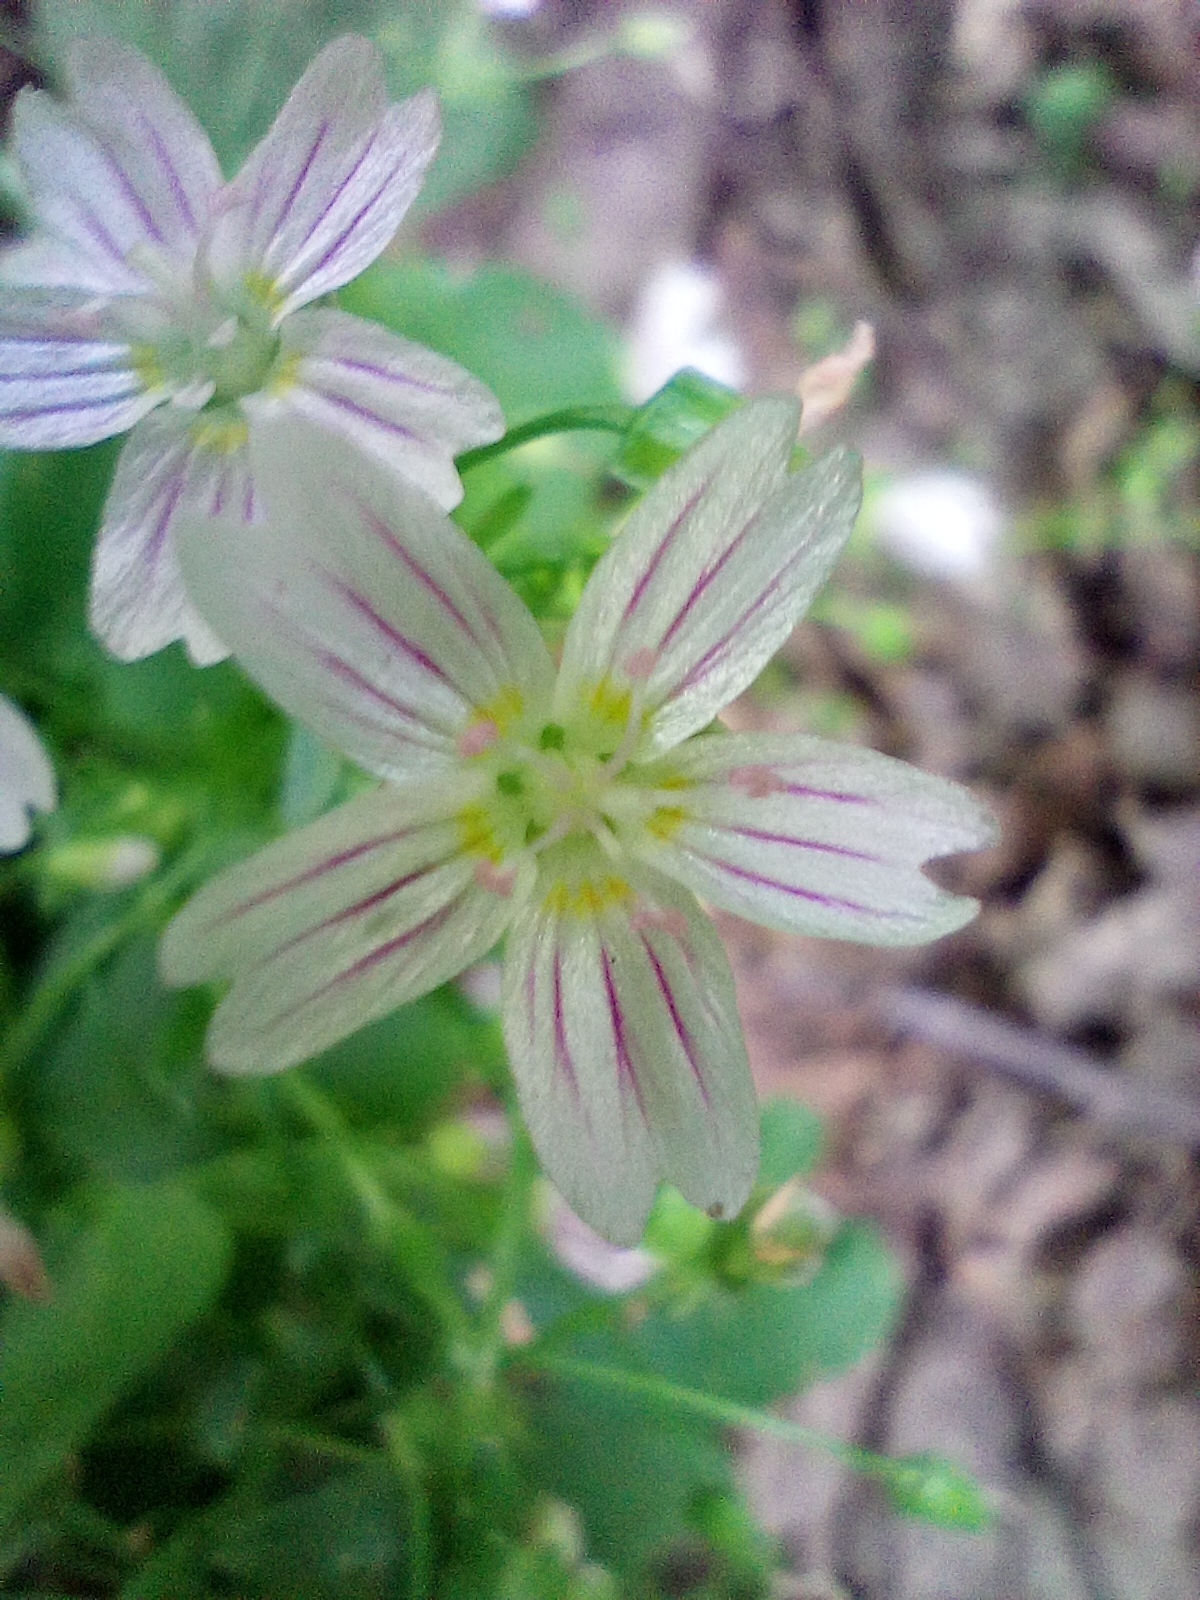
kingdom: Plantae
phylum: Tracheophyta
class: Magnoliopsida
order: Caryophyllales
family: Montiaceae
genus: Claytonia
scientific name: Claytonia sibirica
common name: Pink purslane
